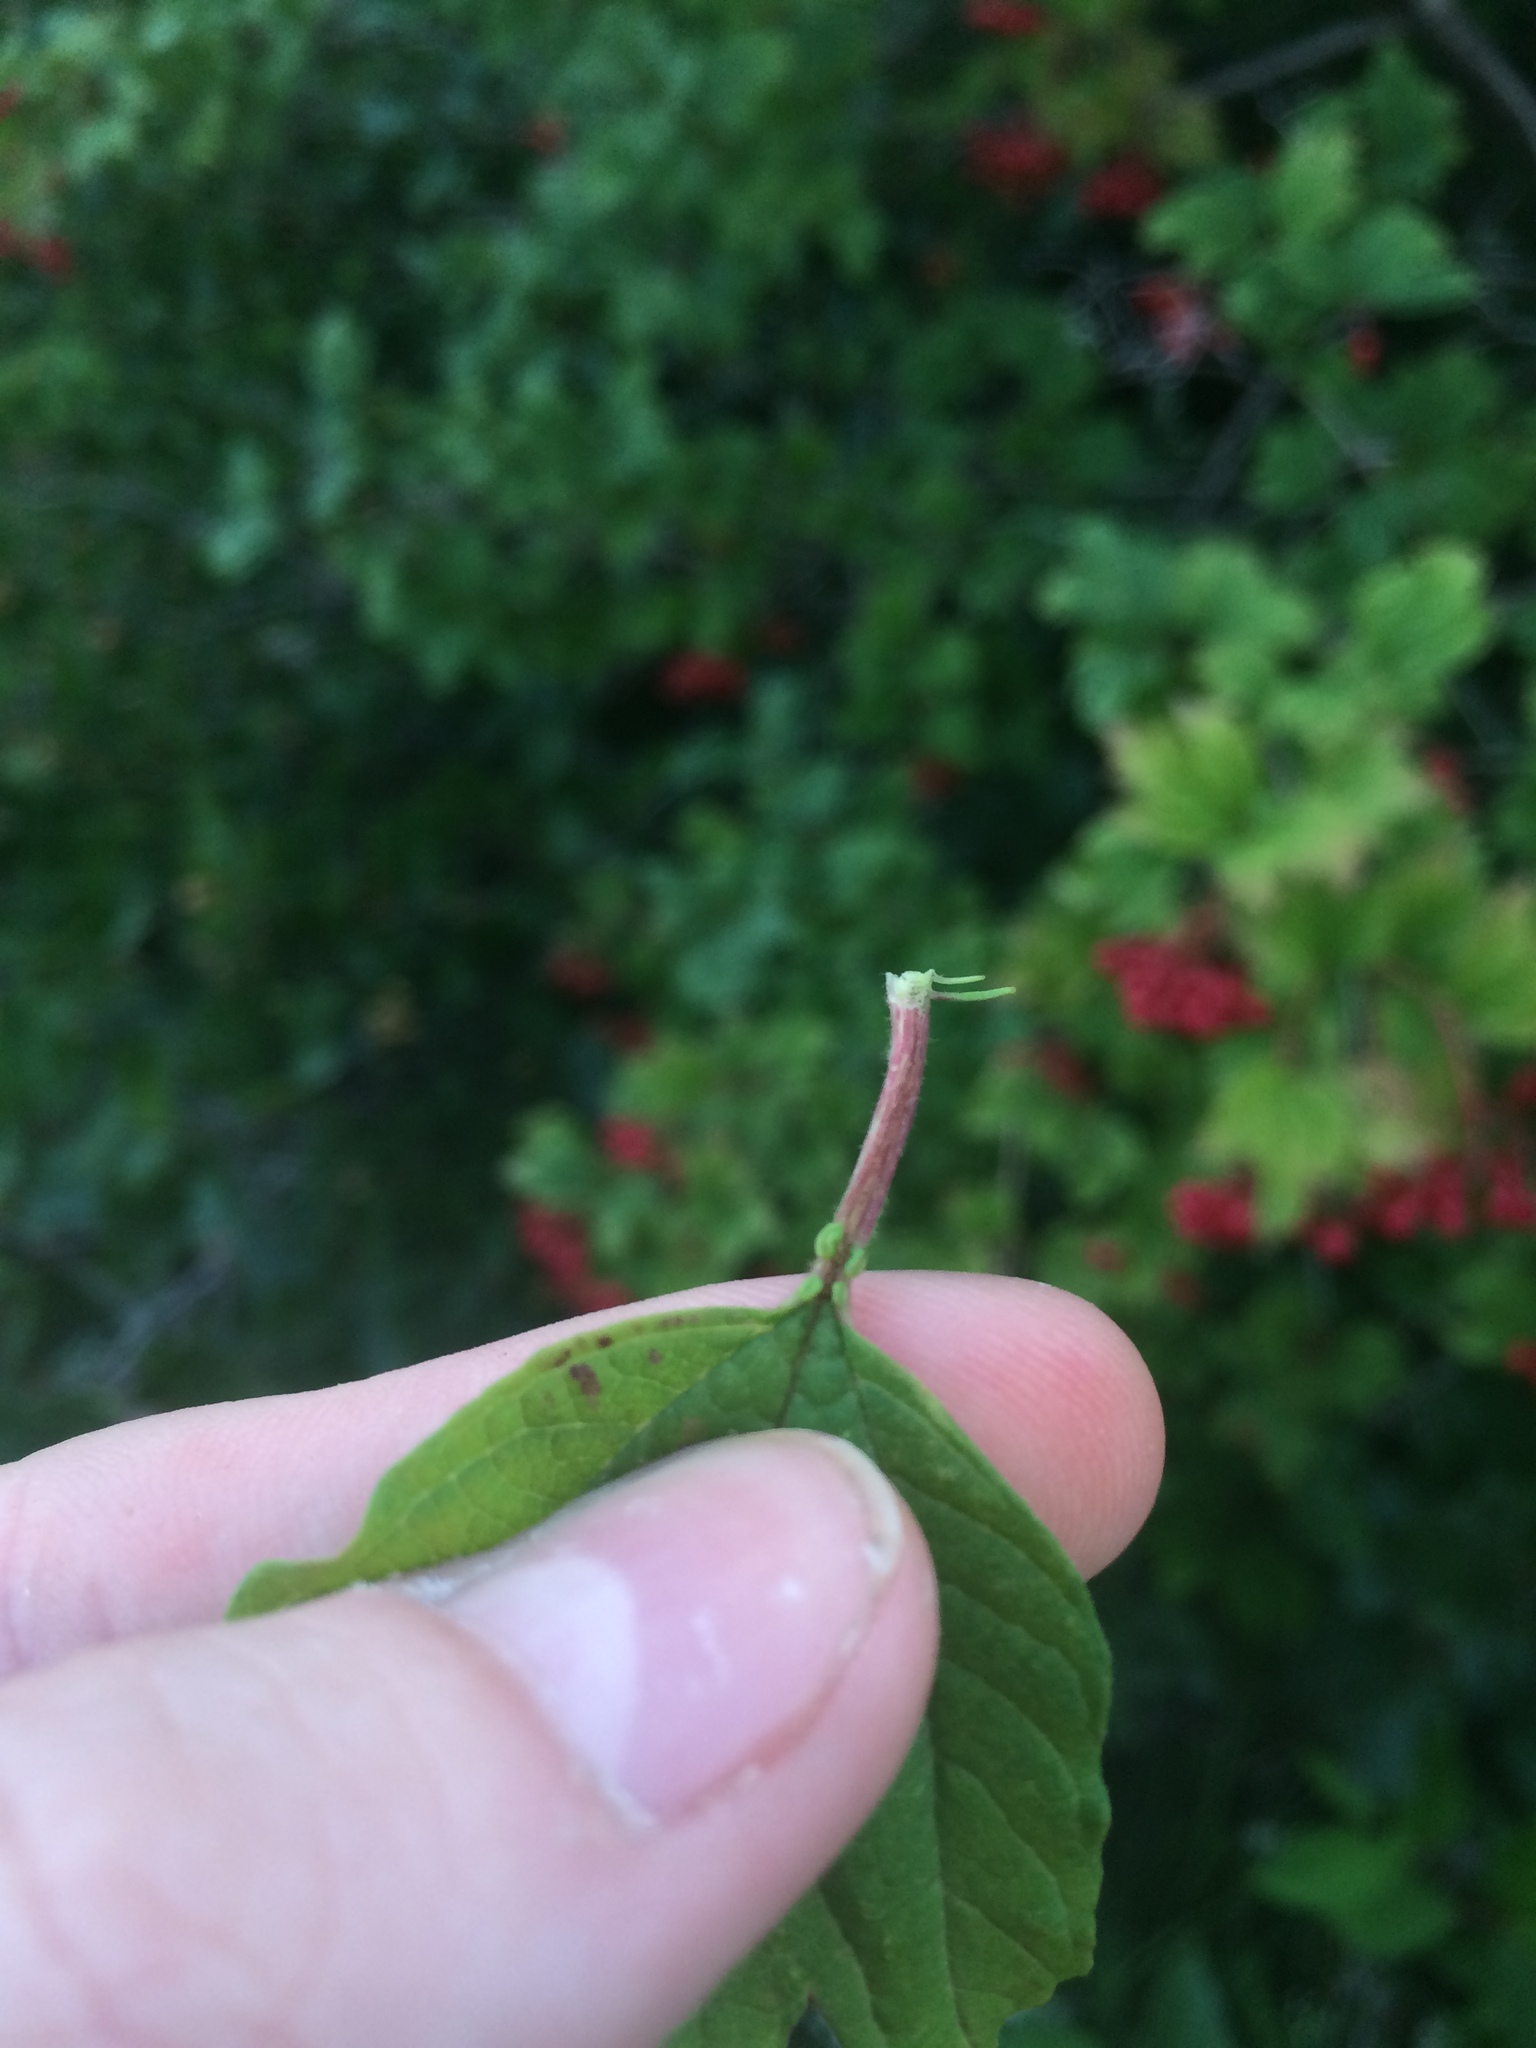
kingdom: Plantae
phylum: Tracheophyta
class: Magnoliopsida
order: Dipsacales
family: Viburnaceae
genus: Viburnum
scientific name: Viburnum opulus
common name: Guelder-rose
